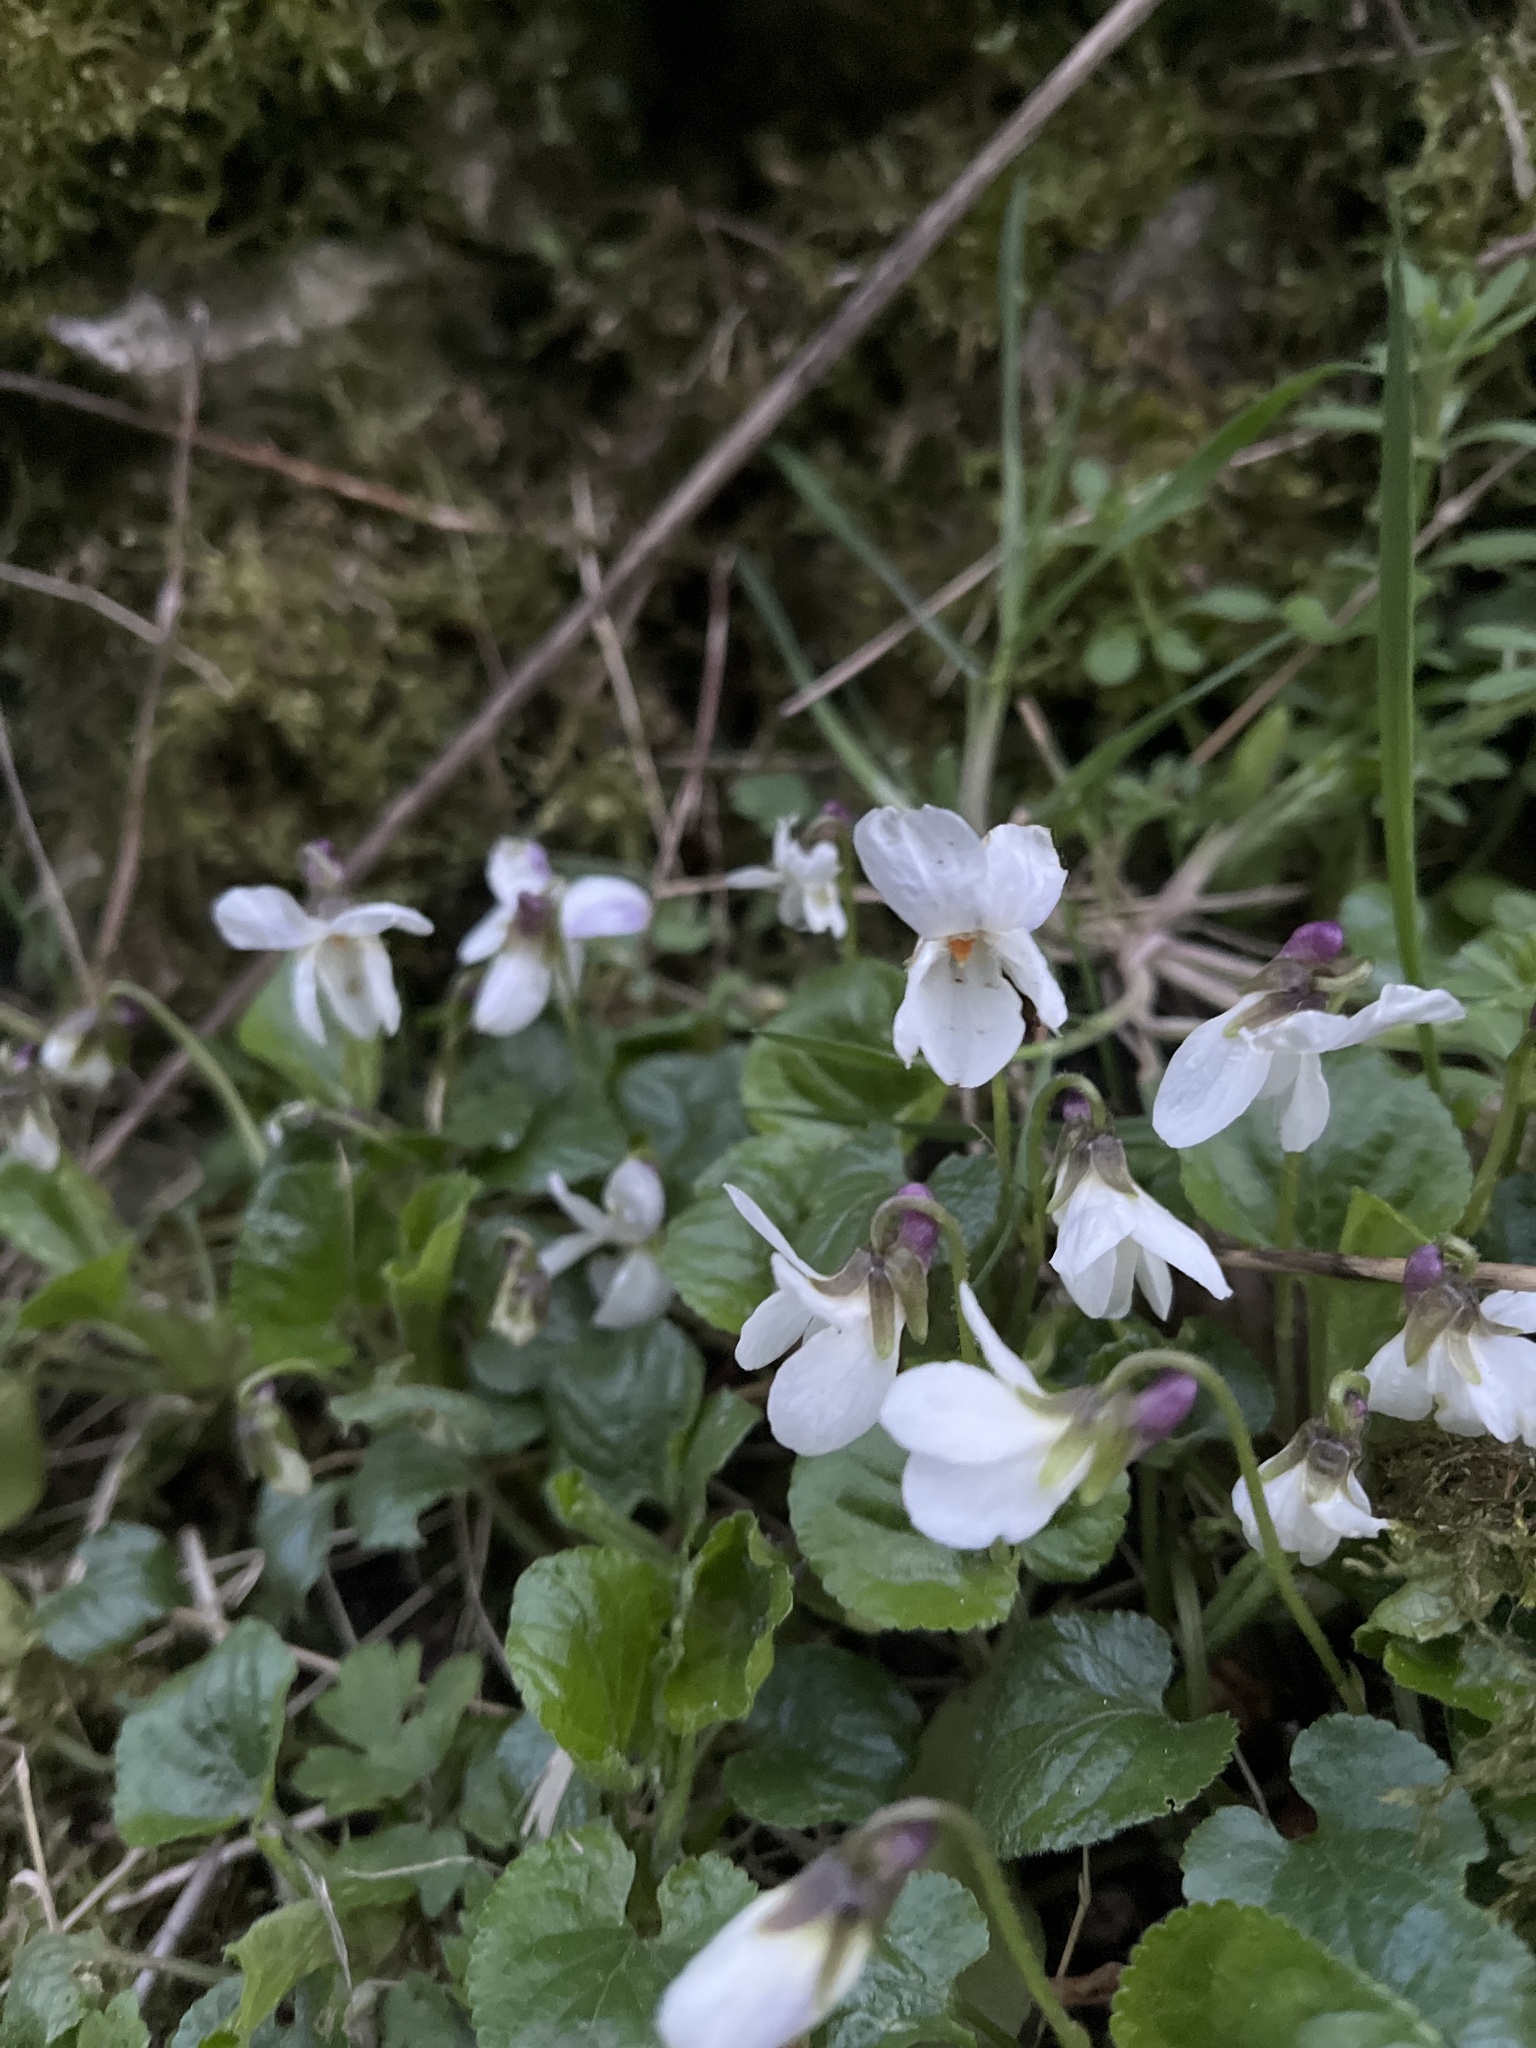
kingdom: Plantae
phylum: Tracheophyta
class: Magnoliopsida
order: Malpighiales
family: Violaceae
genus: Viola
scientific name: Viola odorata
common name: Sweet violet
